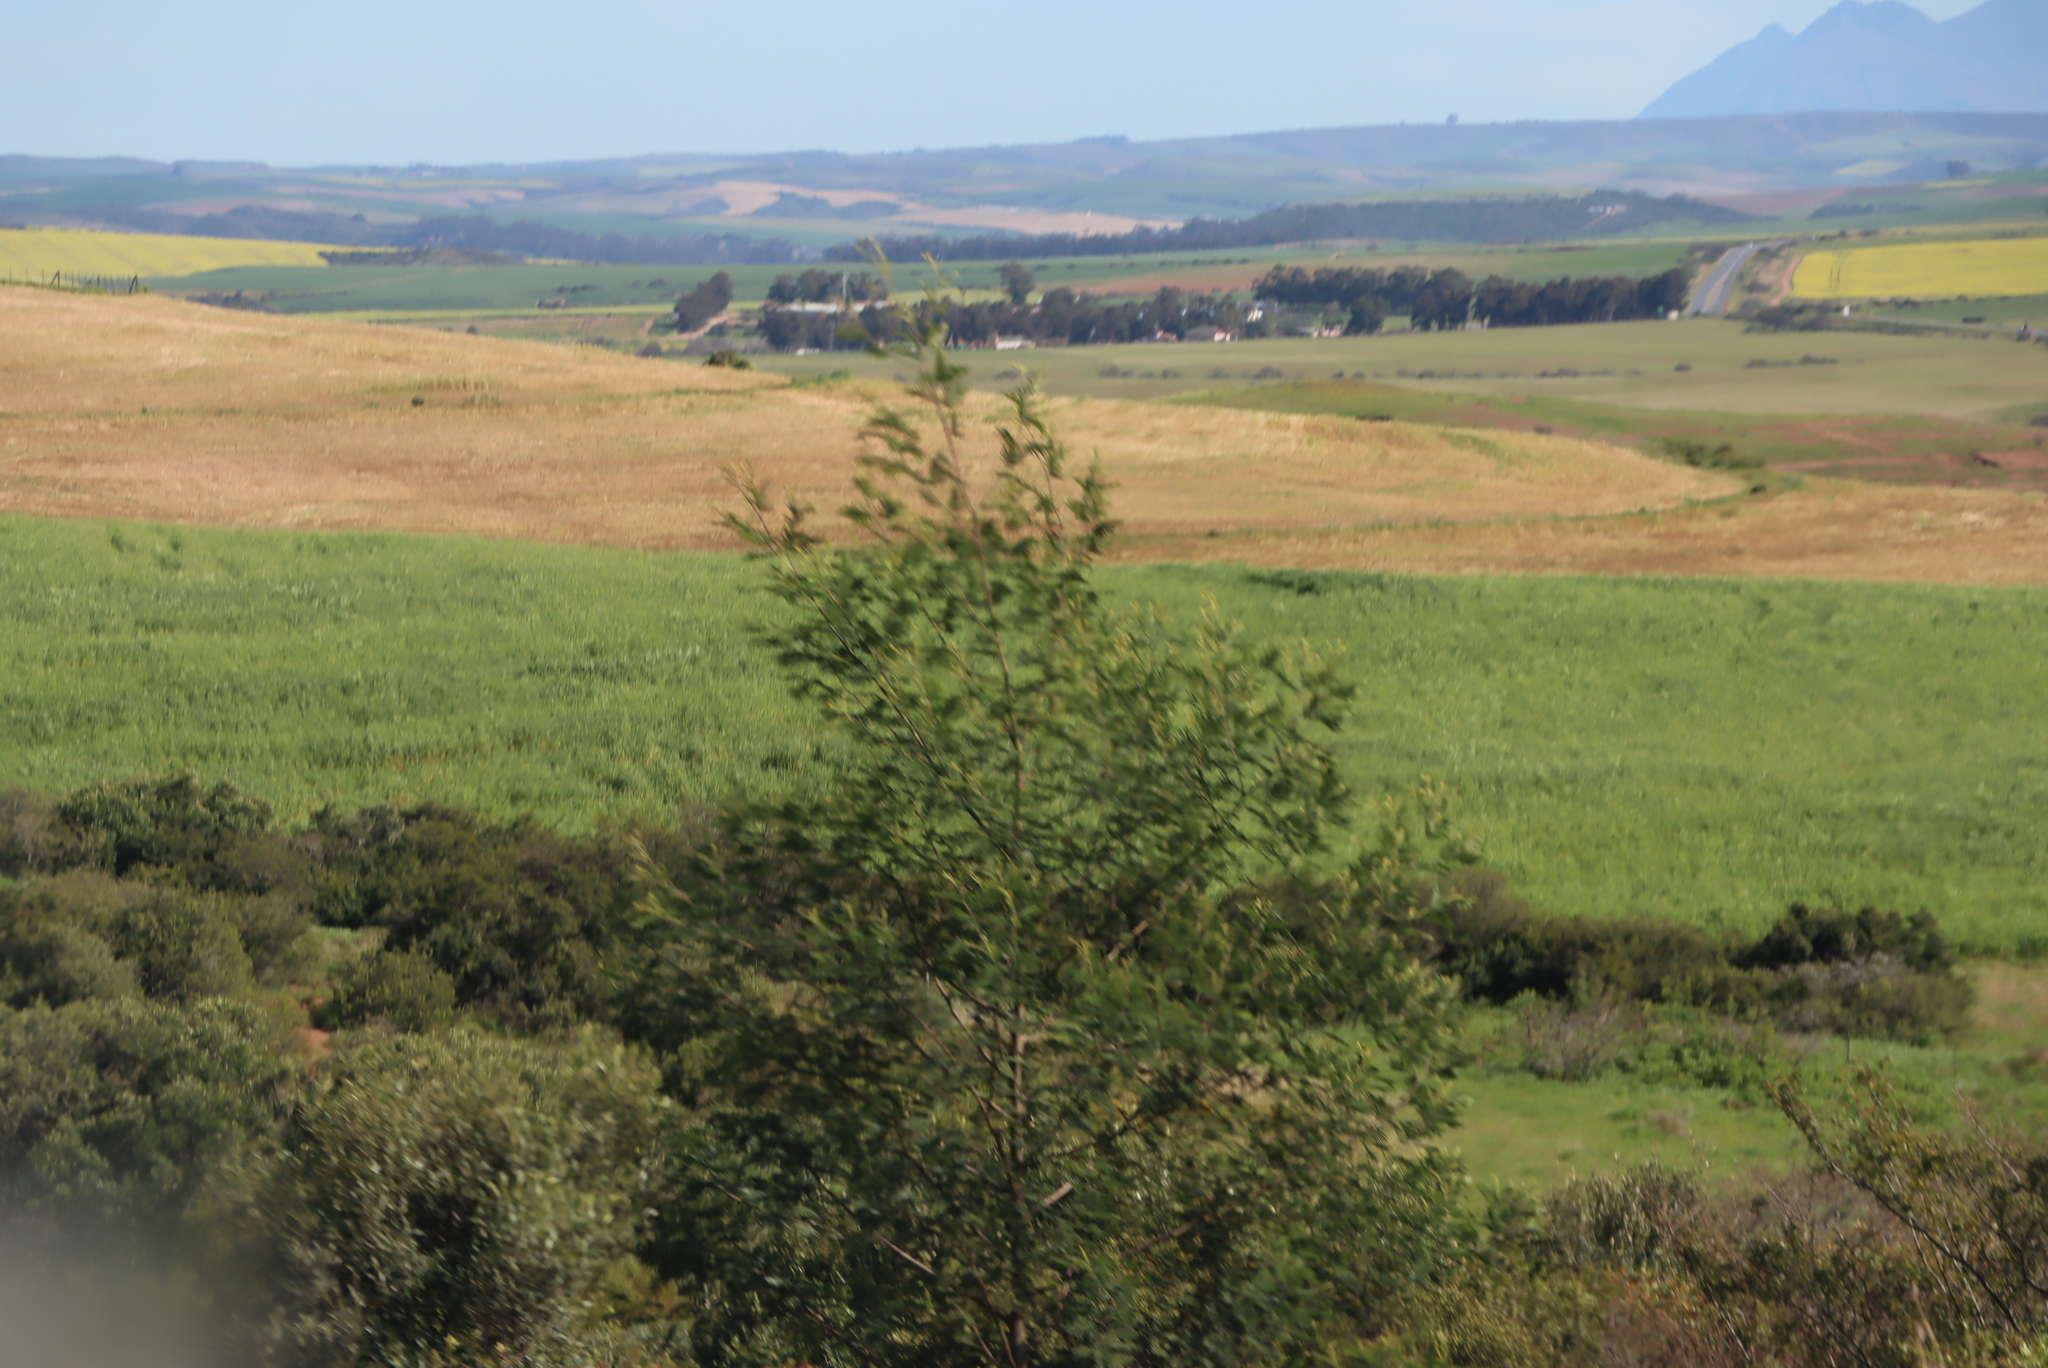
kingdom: Plantae
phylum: Tracheophyta
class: Magnoliopsida
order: Fabales
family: Fabaceae
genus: Acacia
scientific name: Acacia mearnsii
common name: Black wattle
